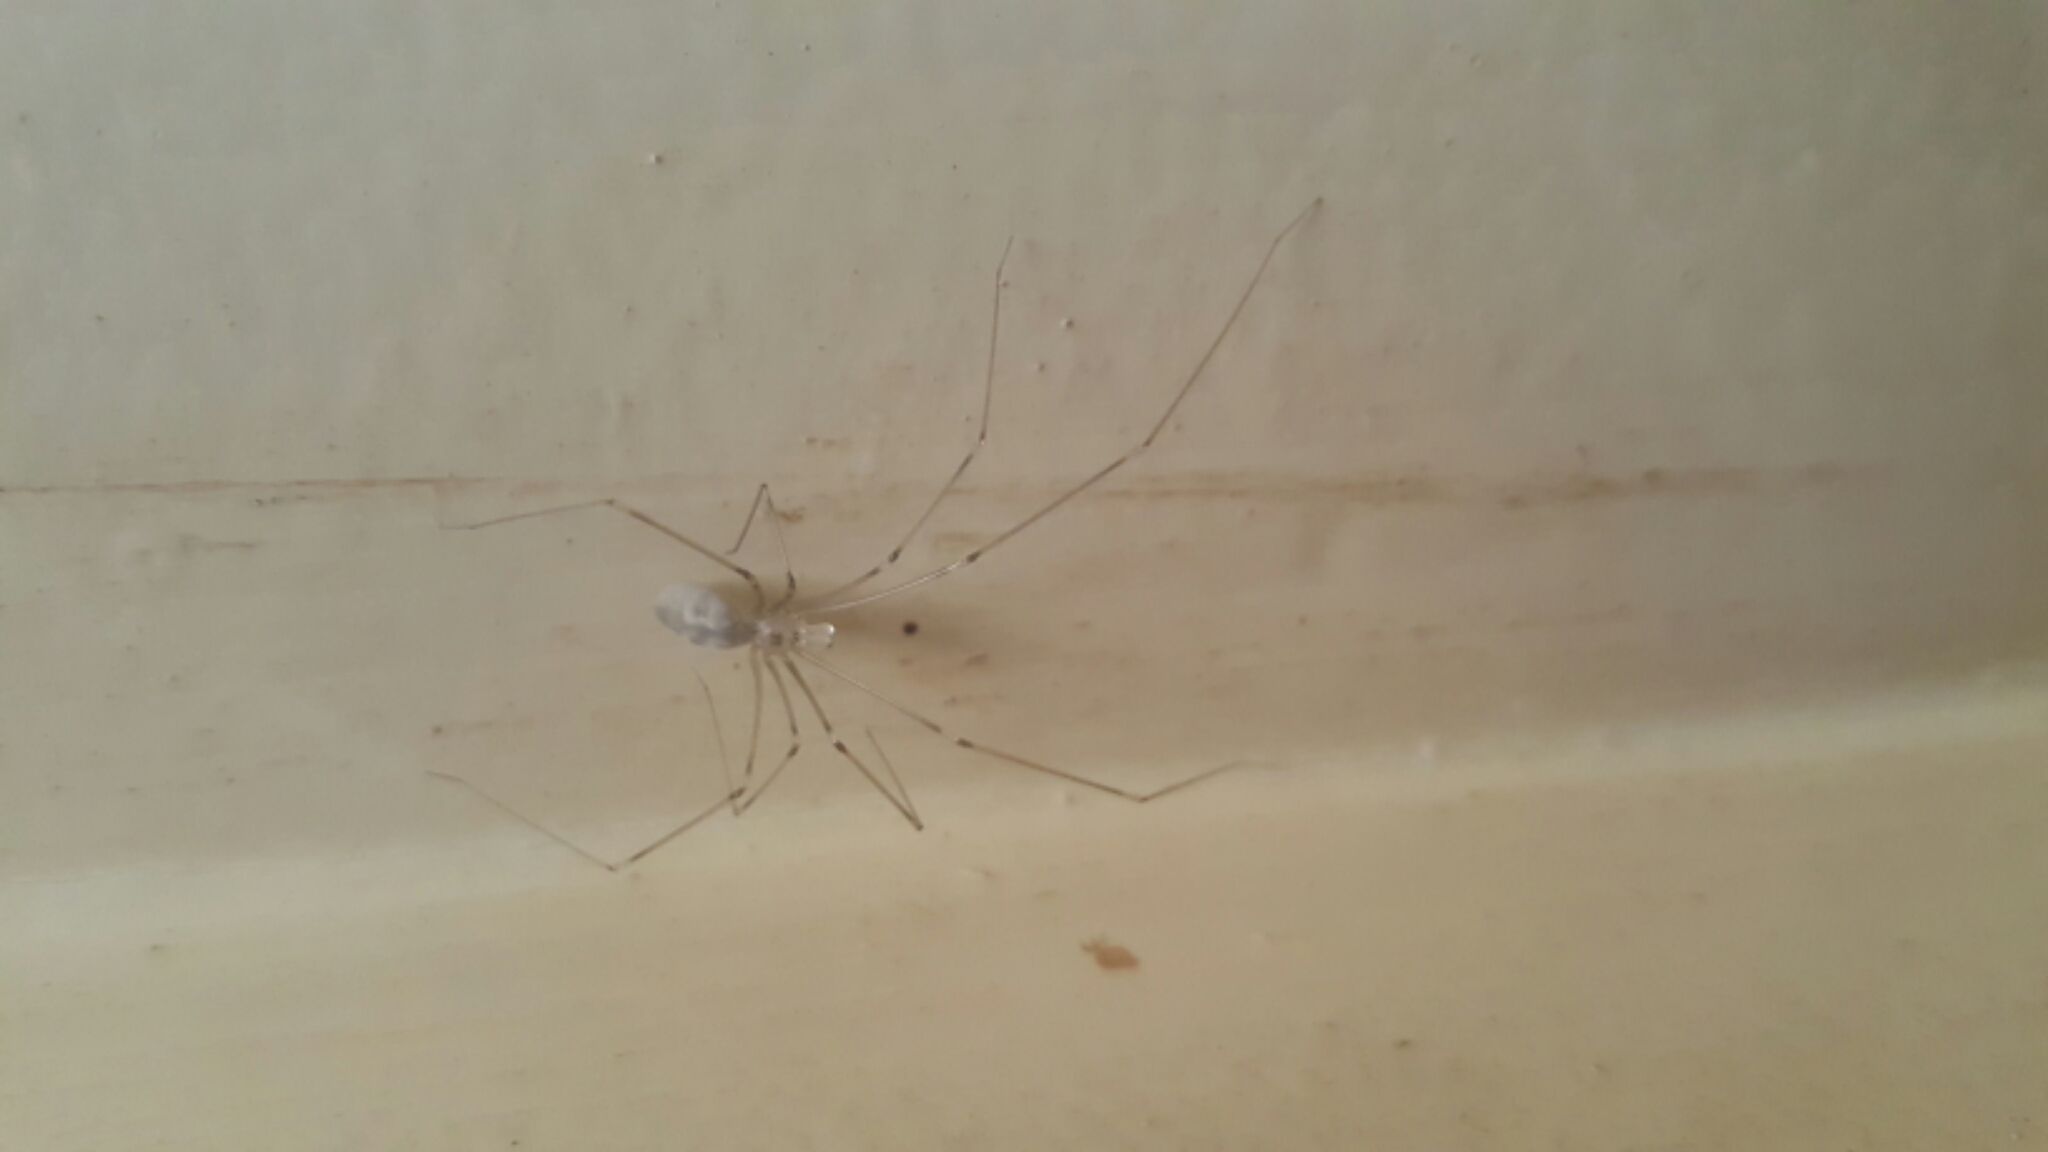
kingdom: Animalia
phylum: Arthropoda
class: Arachnida
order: Araneae
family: Pholcidae
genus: Pholcus
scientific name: Pholcus phalangioides
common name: Longbodied cellar spider
